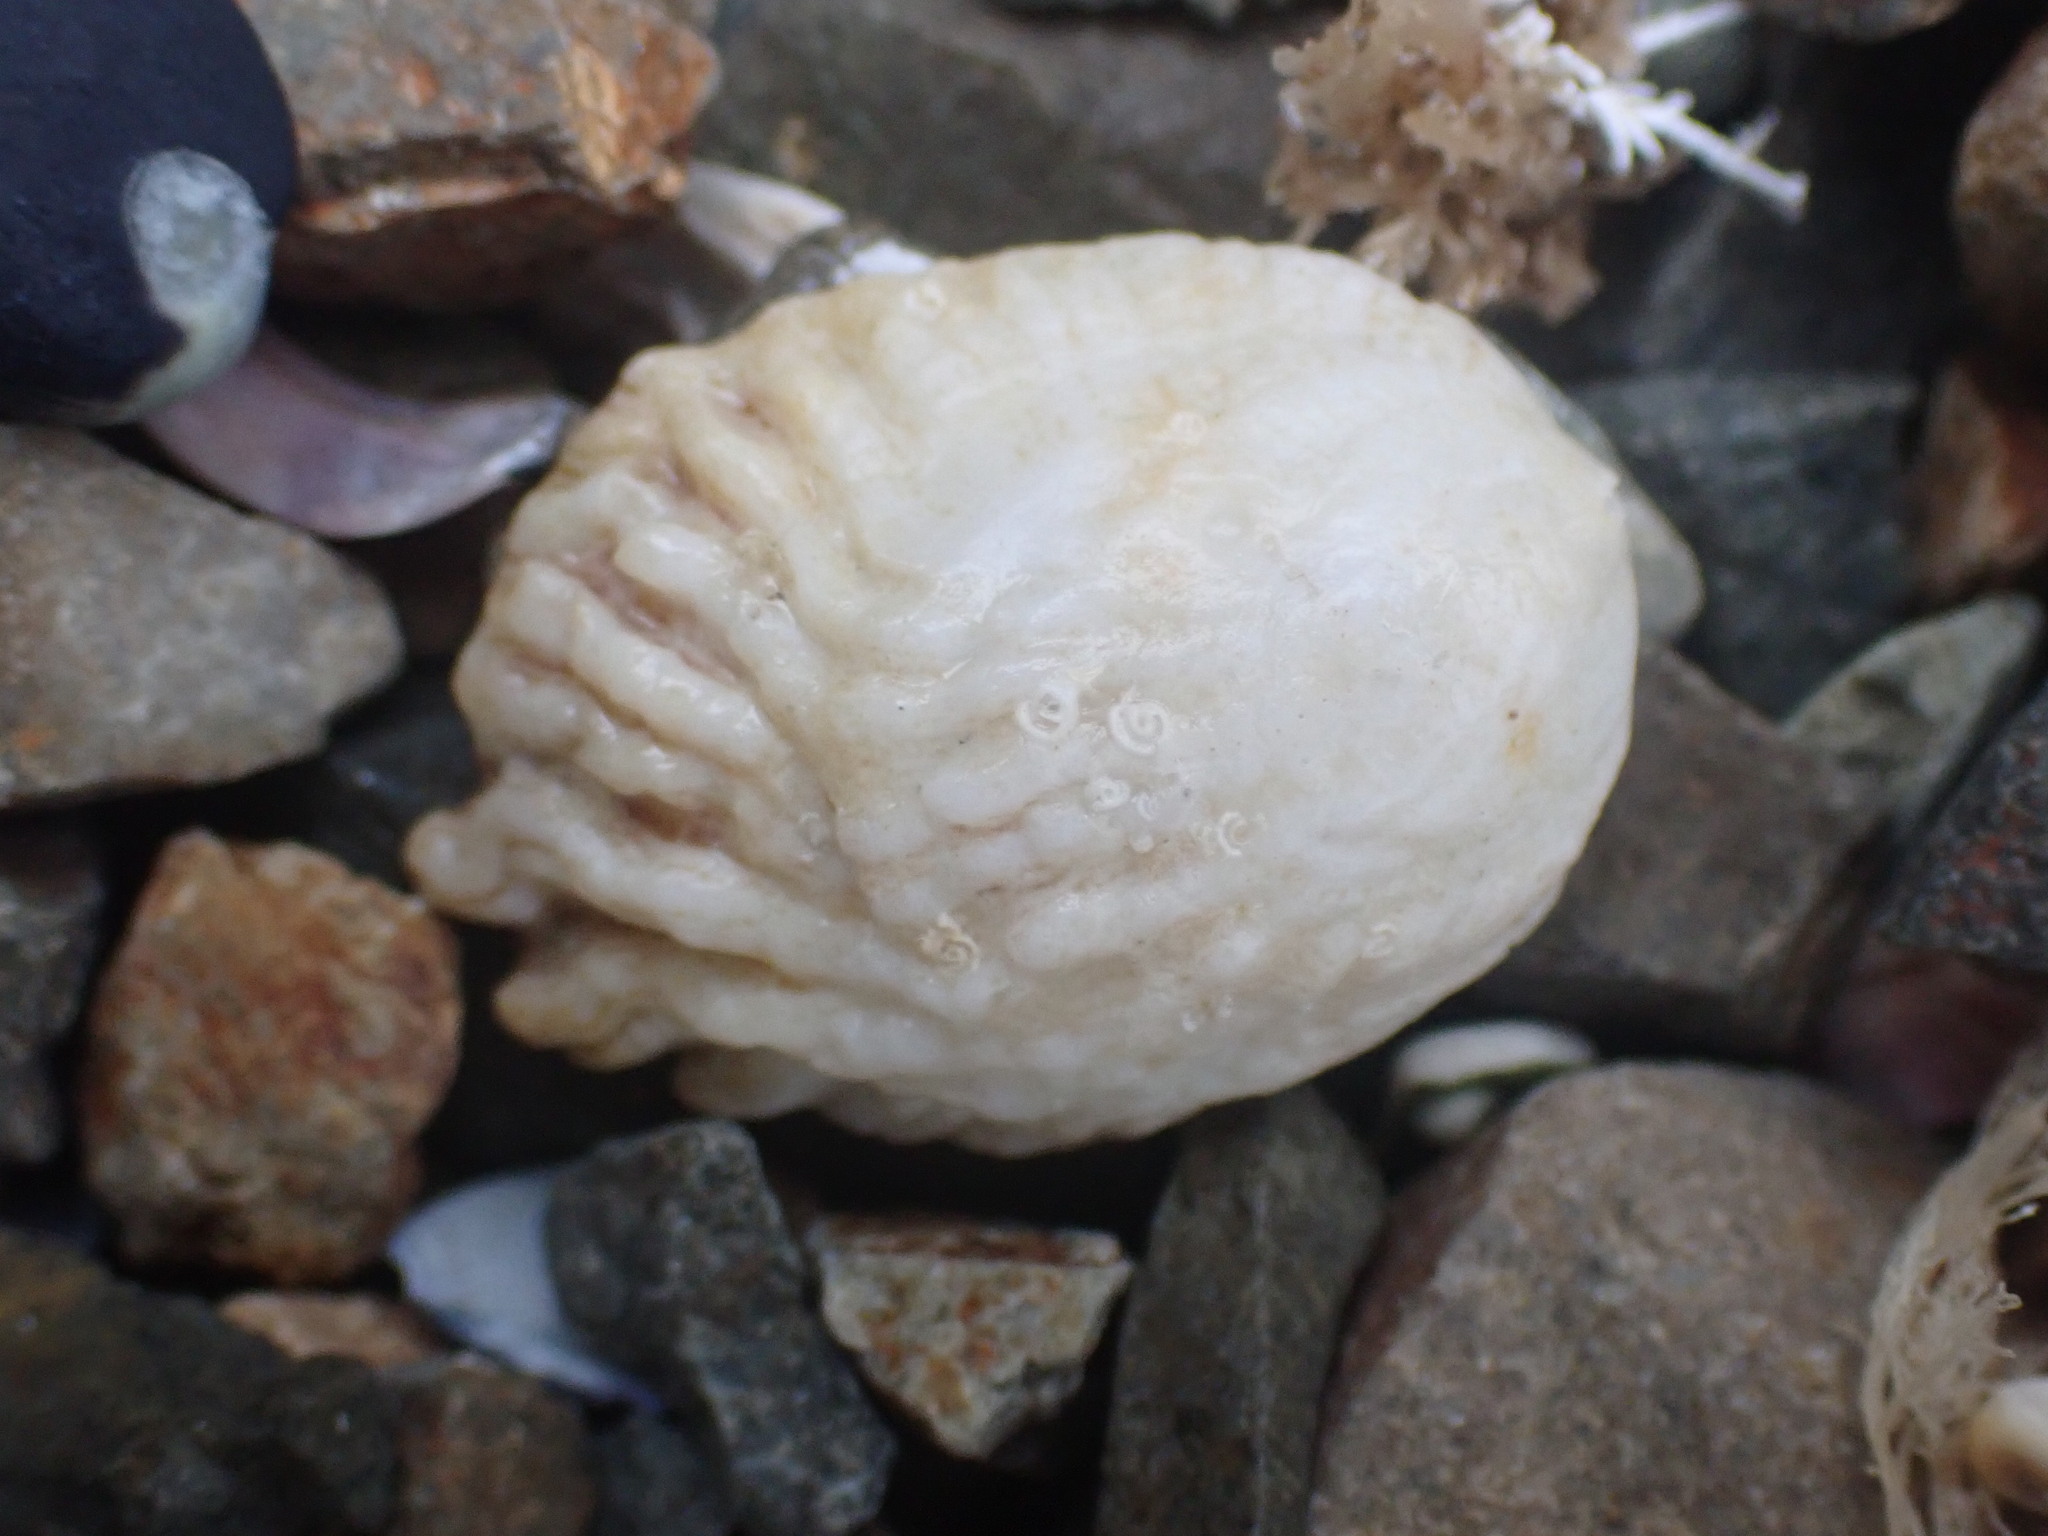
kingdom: Animalia
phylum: Mollusca
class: Gastropoda
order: Littorinimorpha
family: Calyptraeidae
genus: Maoricrypta
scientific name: Maoricrypta costata
